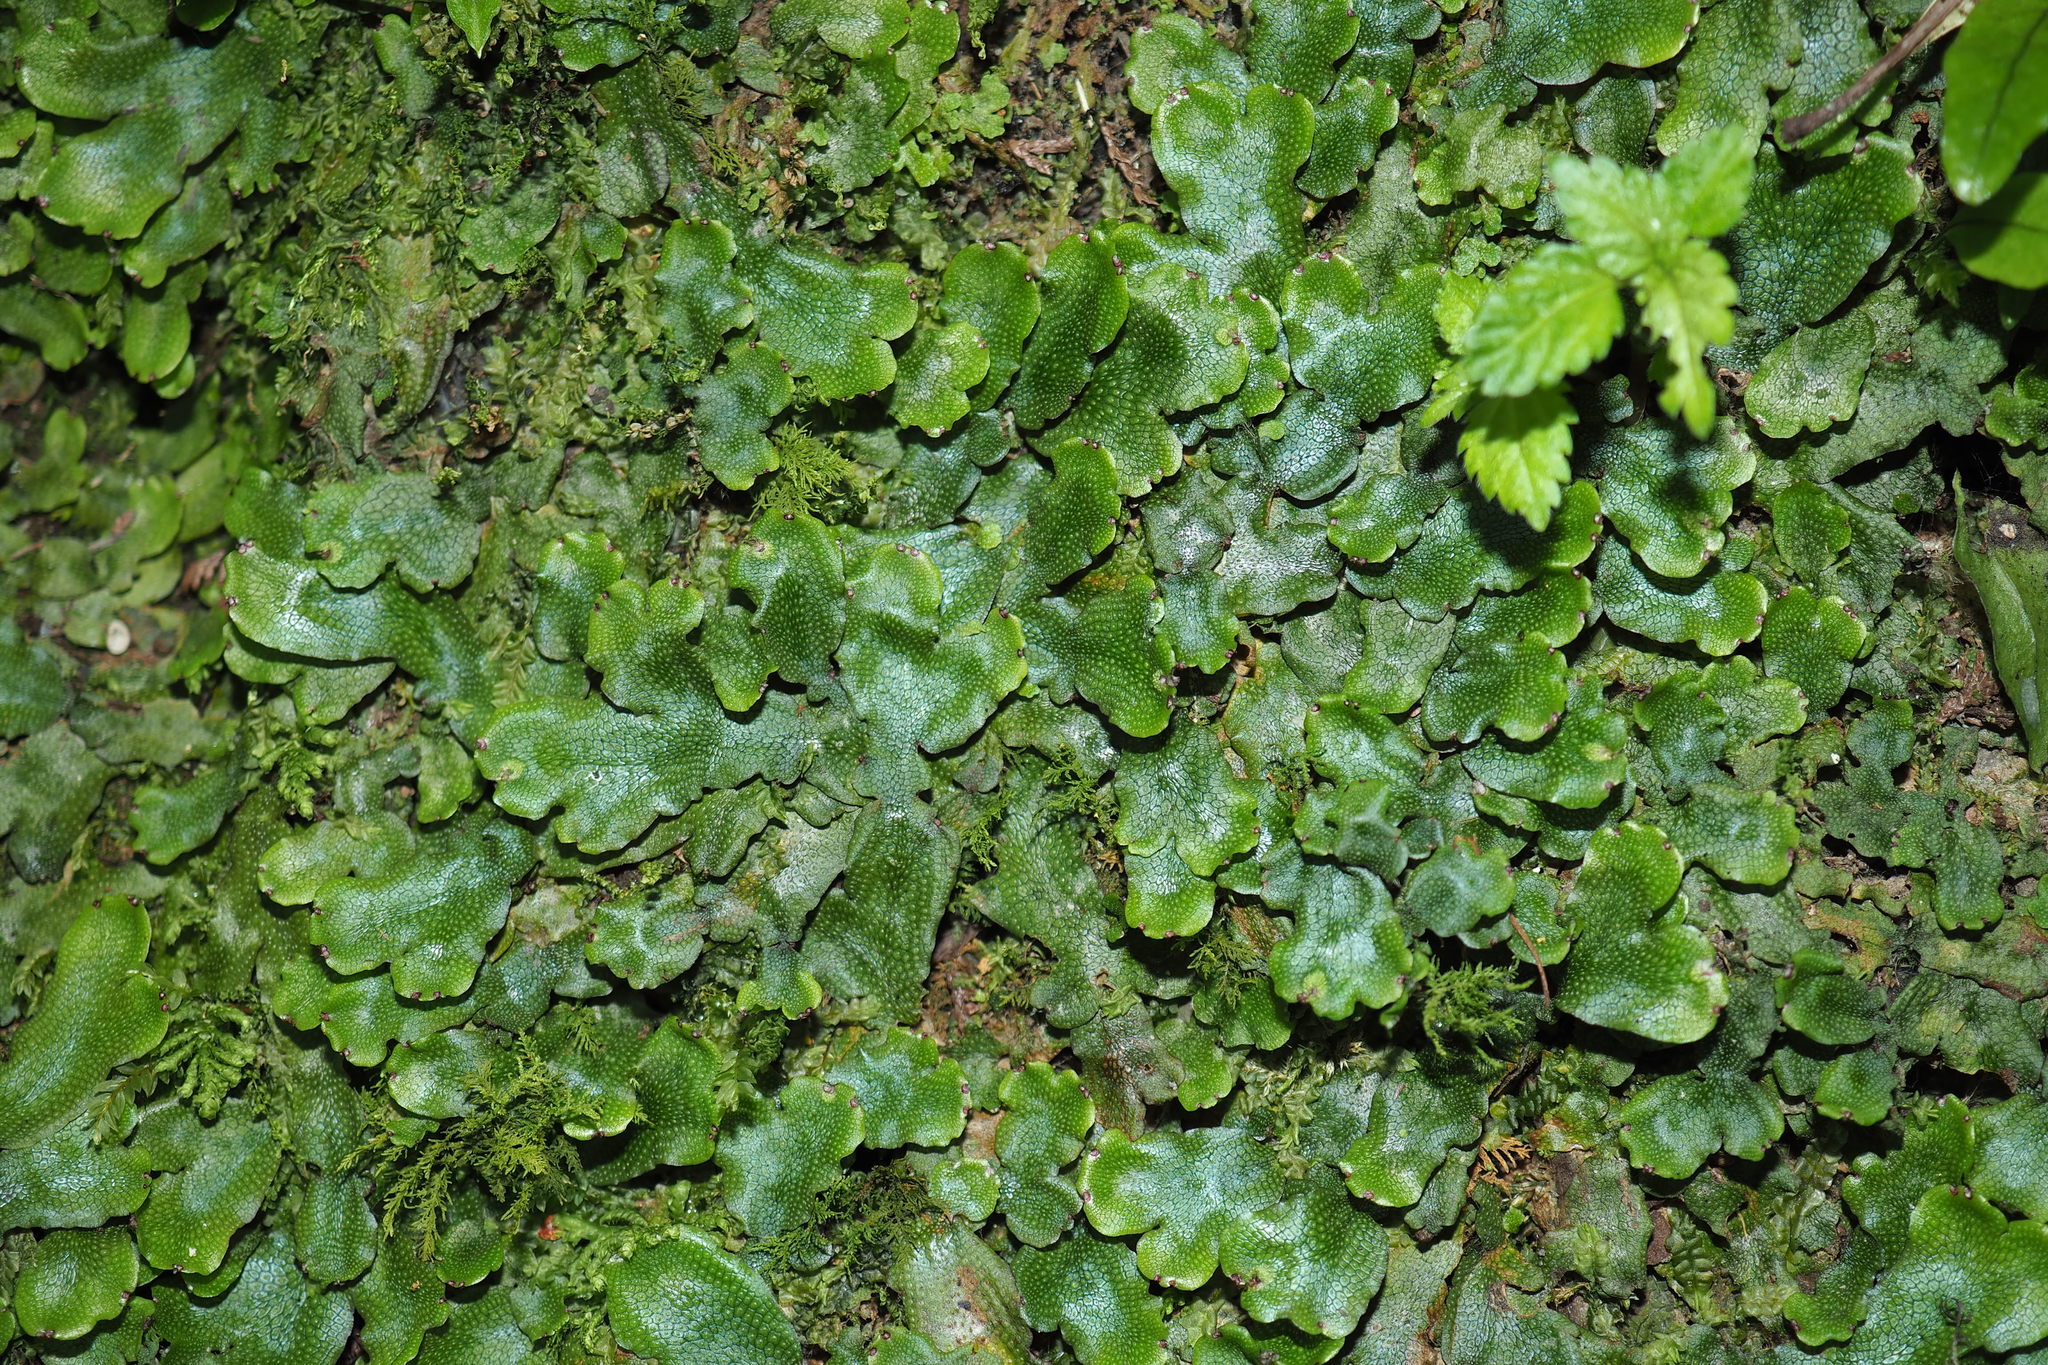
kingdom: Plantae
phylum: Marchantiophyta
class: Marchantiopsida
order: Marchantiales
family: Conocephalaceae
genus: Conocephalum
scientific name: Conocephalum conicum
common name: Great scented liverwort
